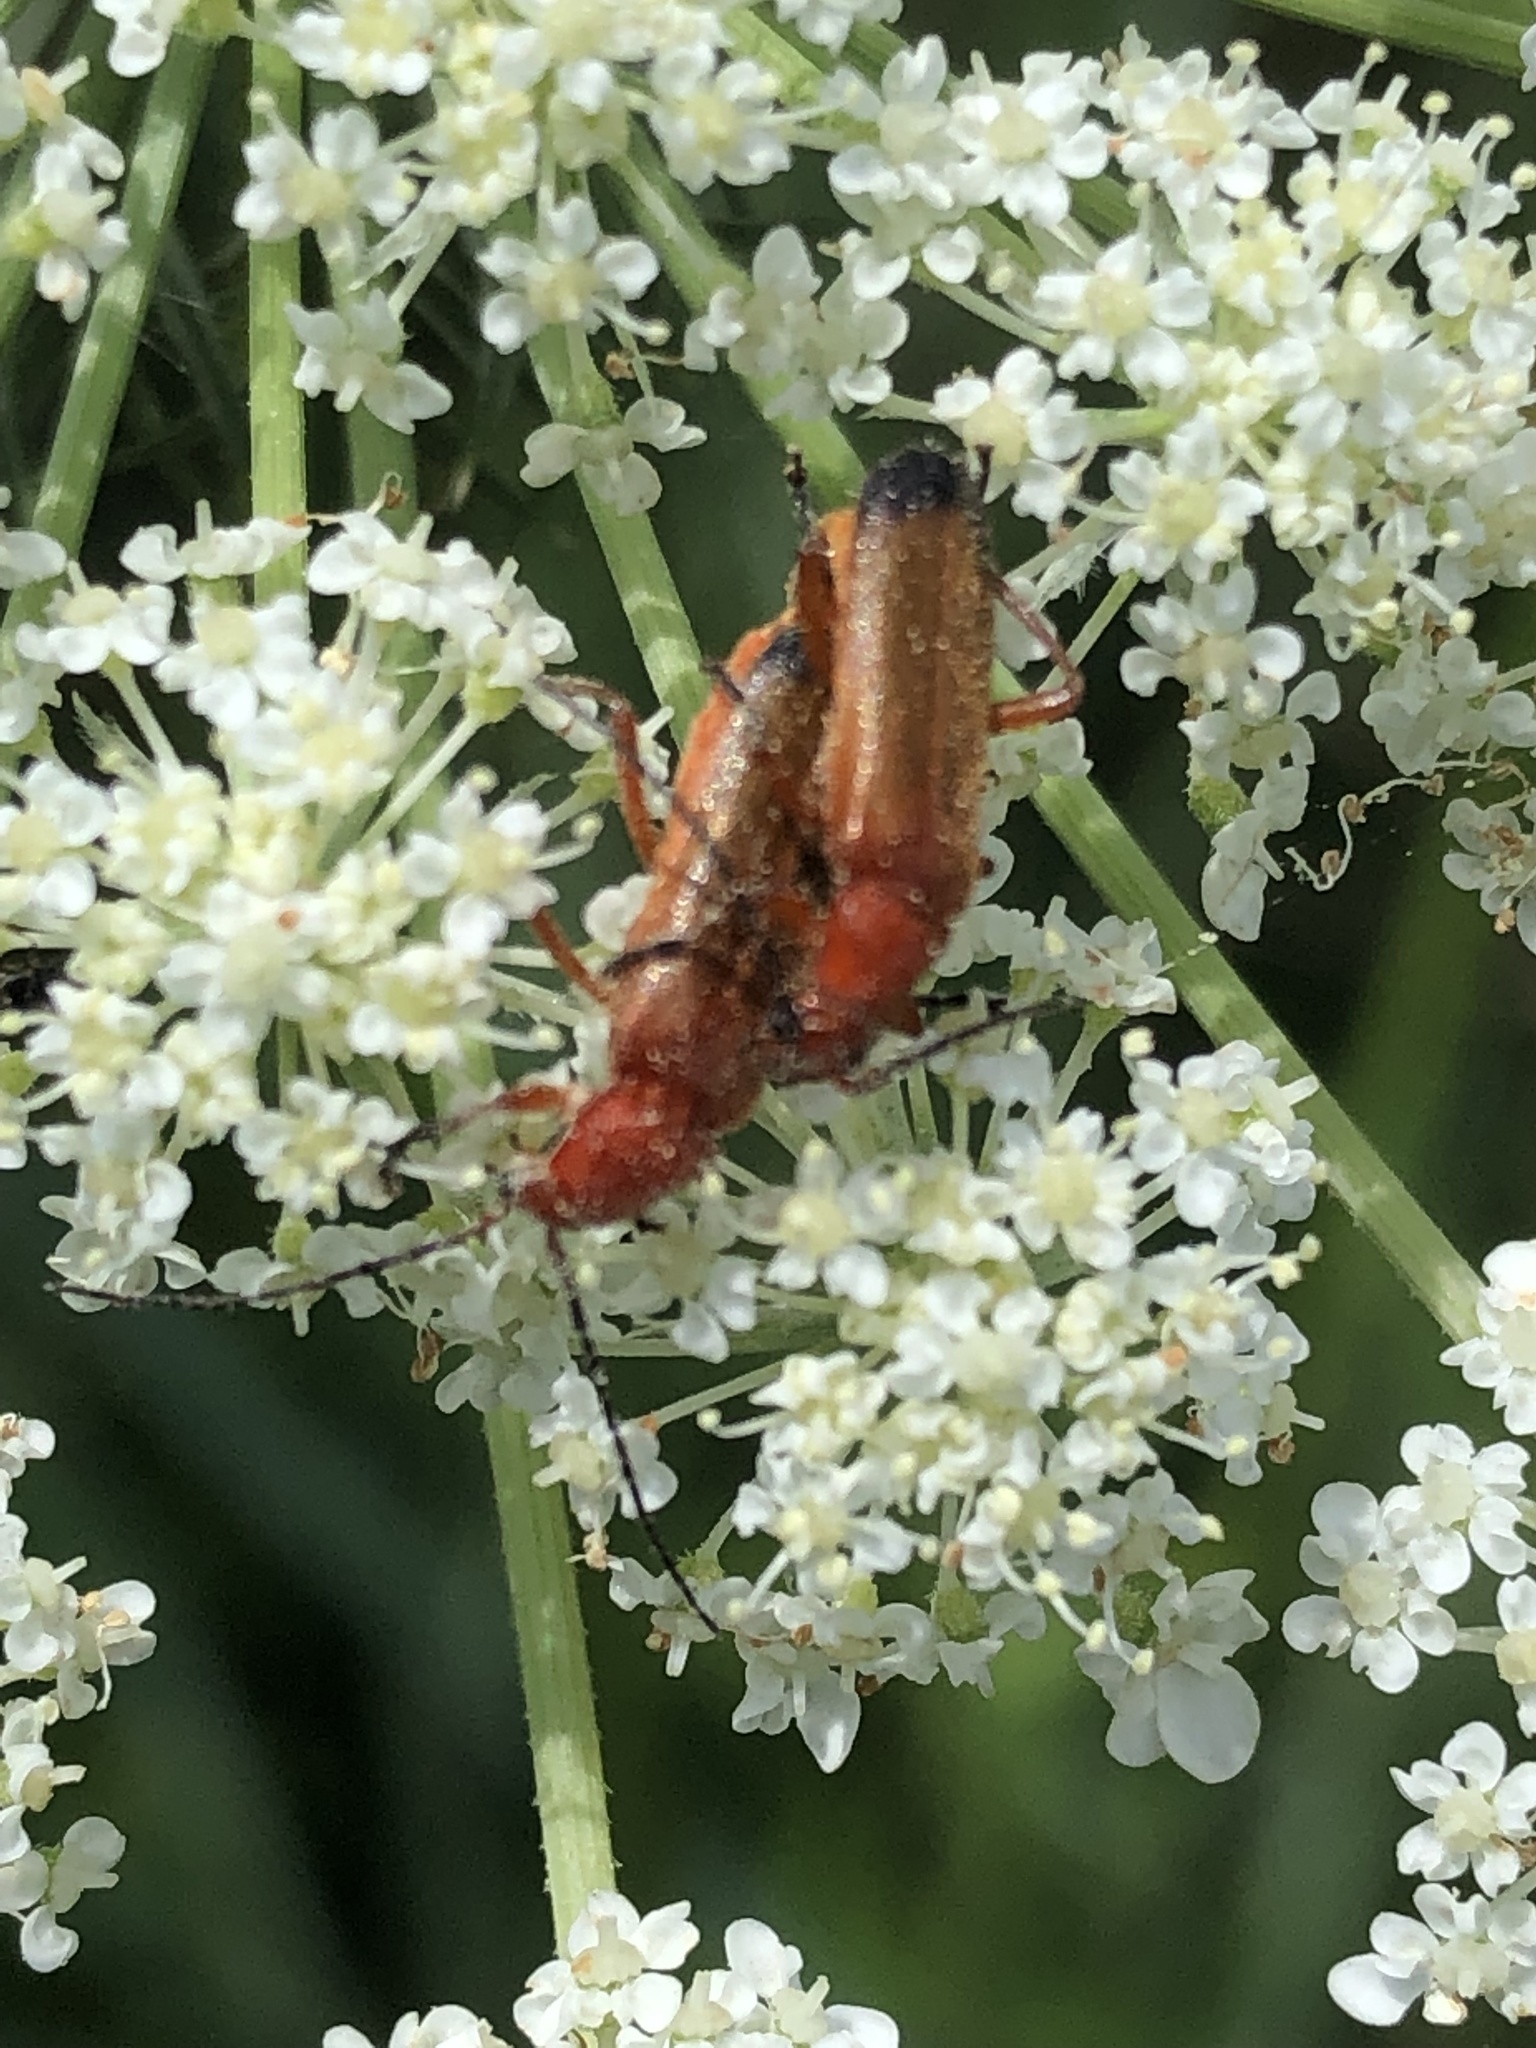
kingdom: Animalia
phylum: Arthropoda
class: Insecta
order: Coleoptera
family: Cantharidae
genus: Rhagonycha
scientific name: Rhagonycha fulva
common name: Common red soldier beetle
